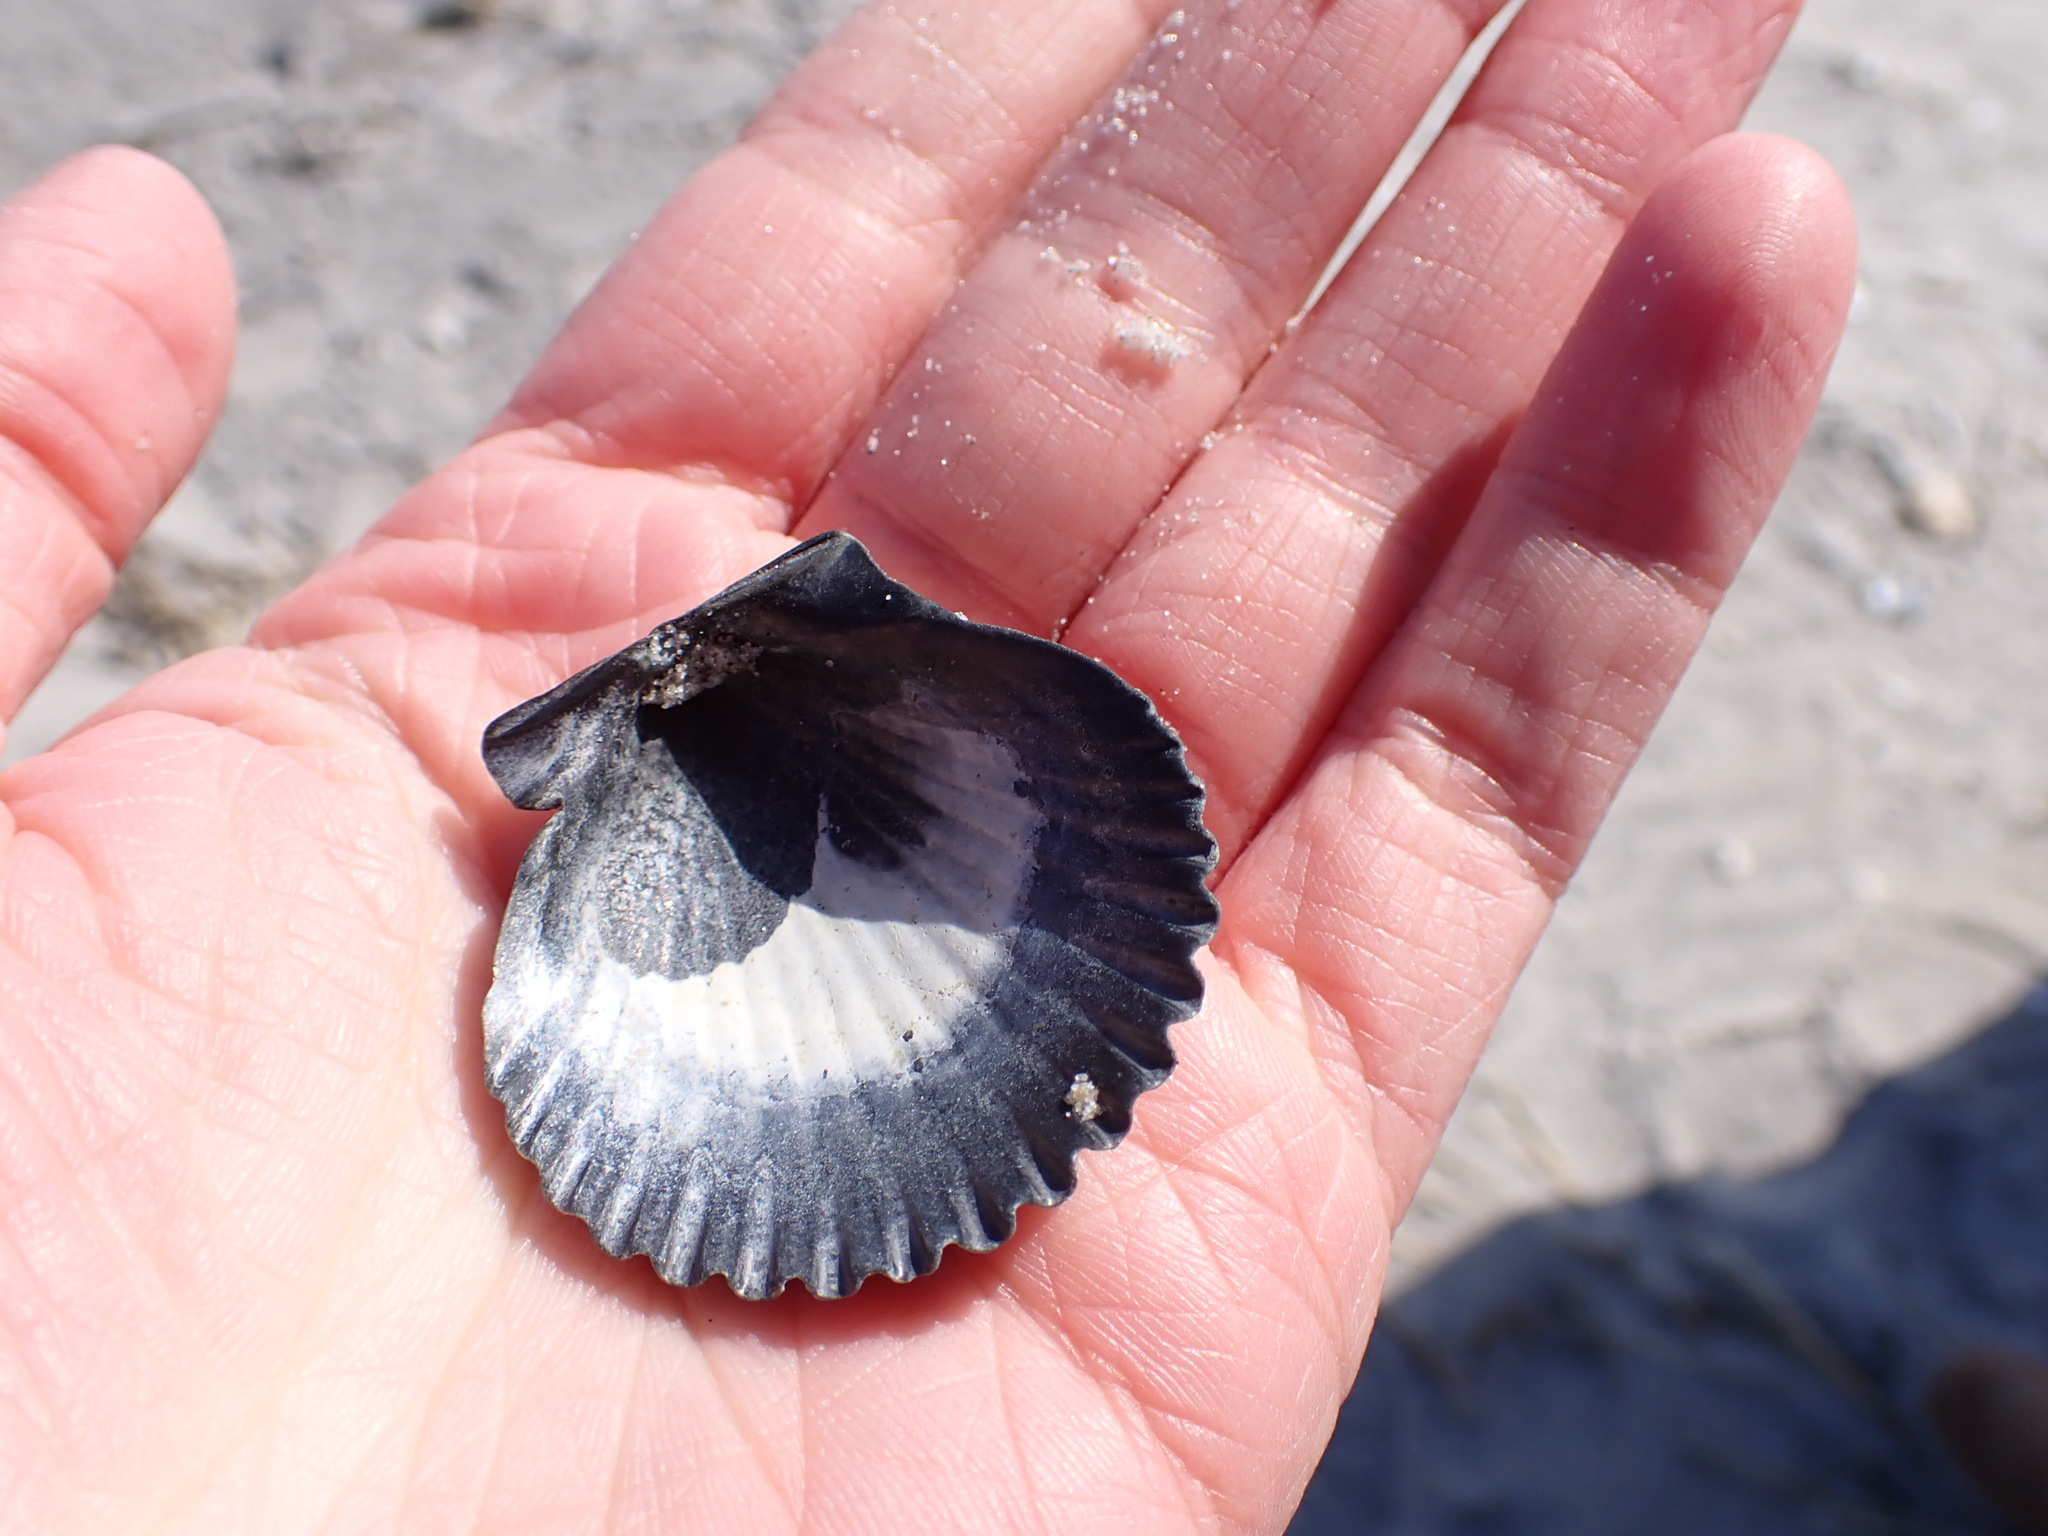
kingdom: Animalia
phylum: Mollusca
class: Bivalvia
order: Pectinida
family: Pectinidae
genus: Argopecten
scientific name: Argopecten irradians
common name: Atlantic bay scallop
